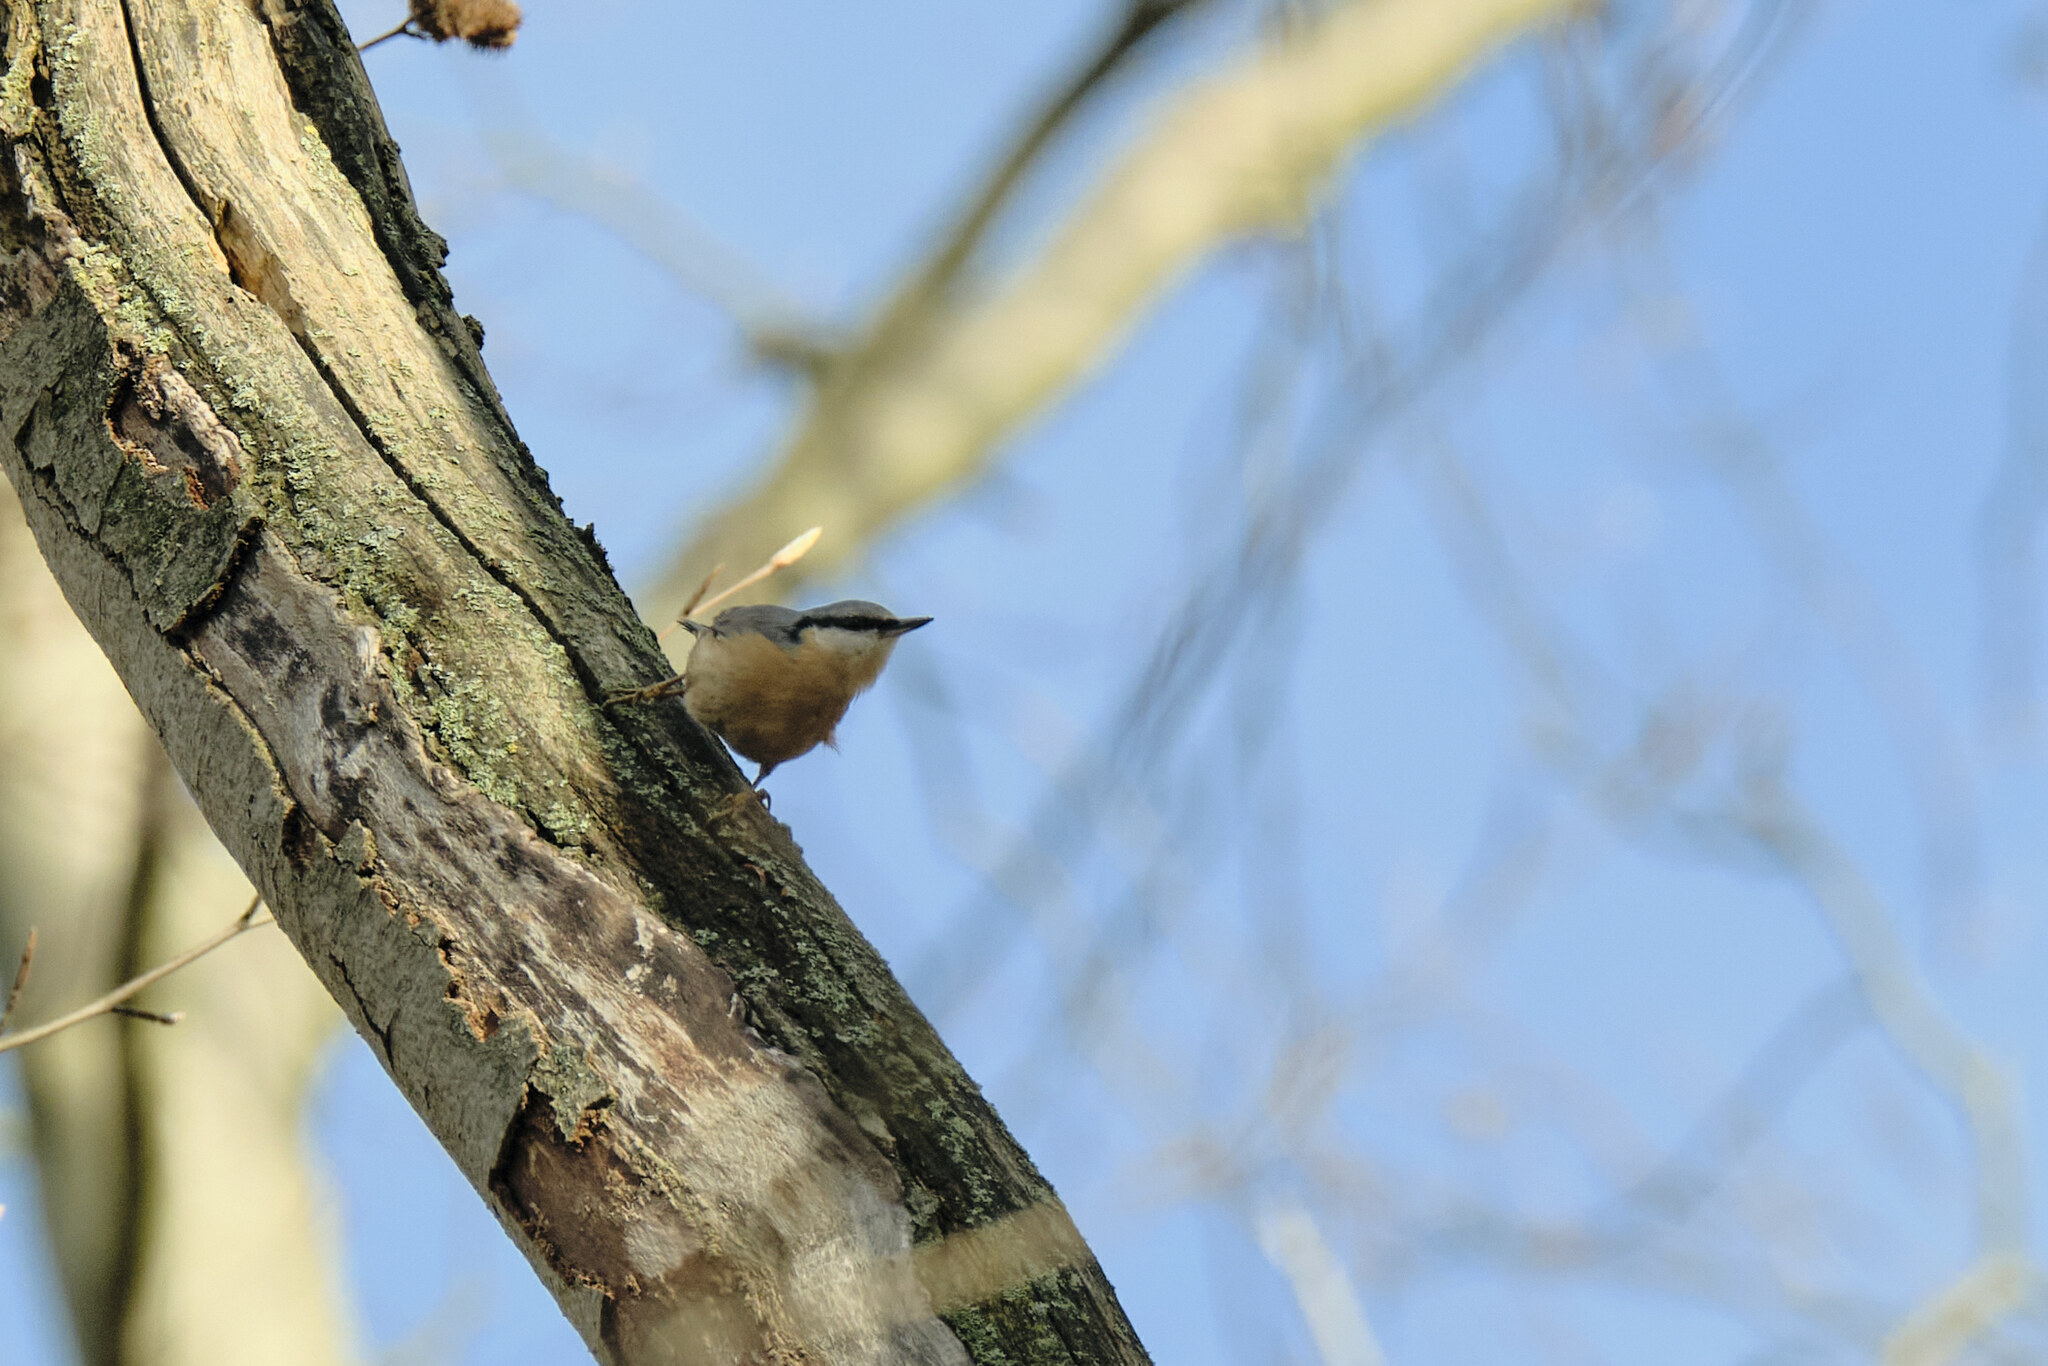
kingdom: Animalia
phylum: Chordata
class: Aves
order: Passeriformes
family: Sittidae
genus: Sitta
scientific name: Sitta europaea
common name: Eurasian nuthatch
